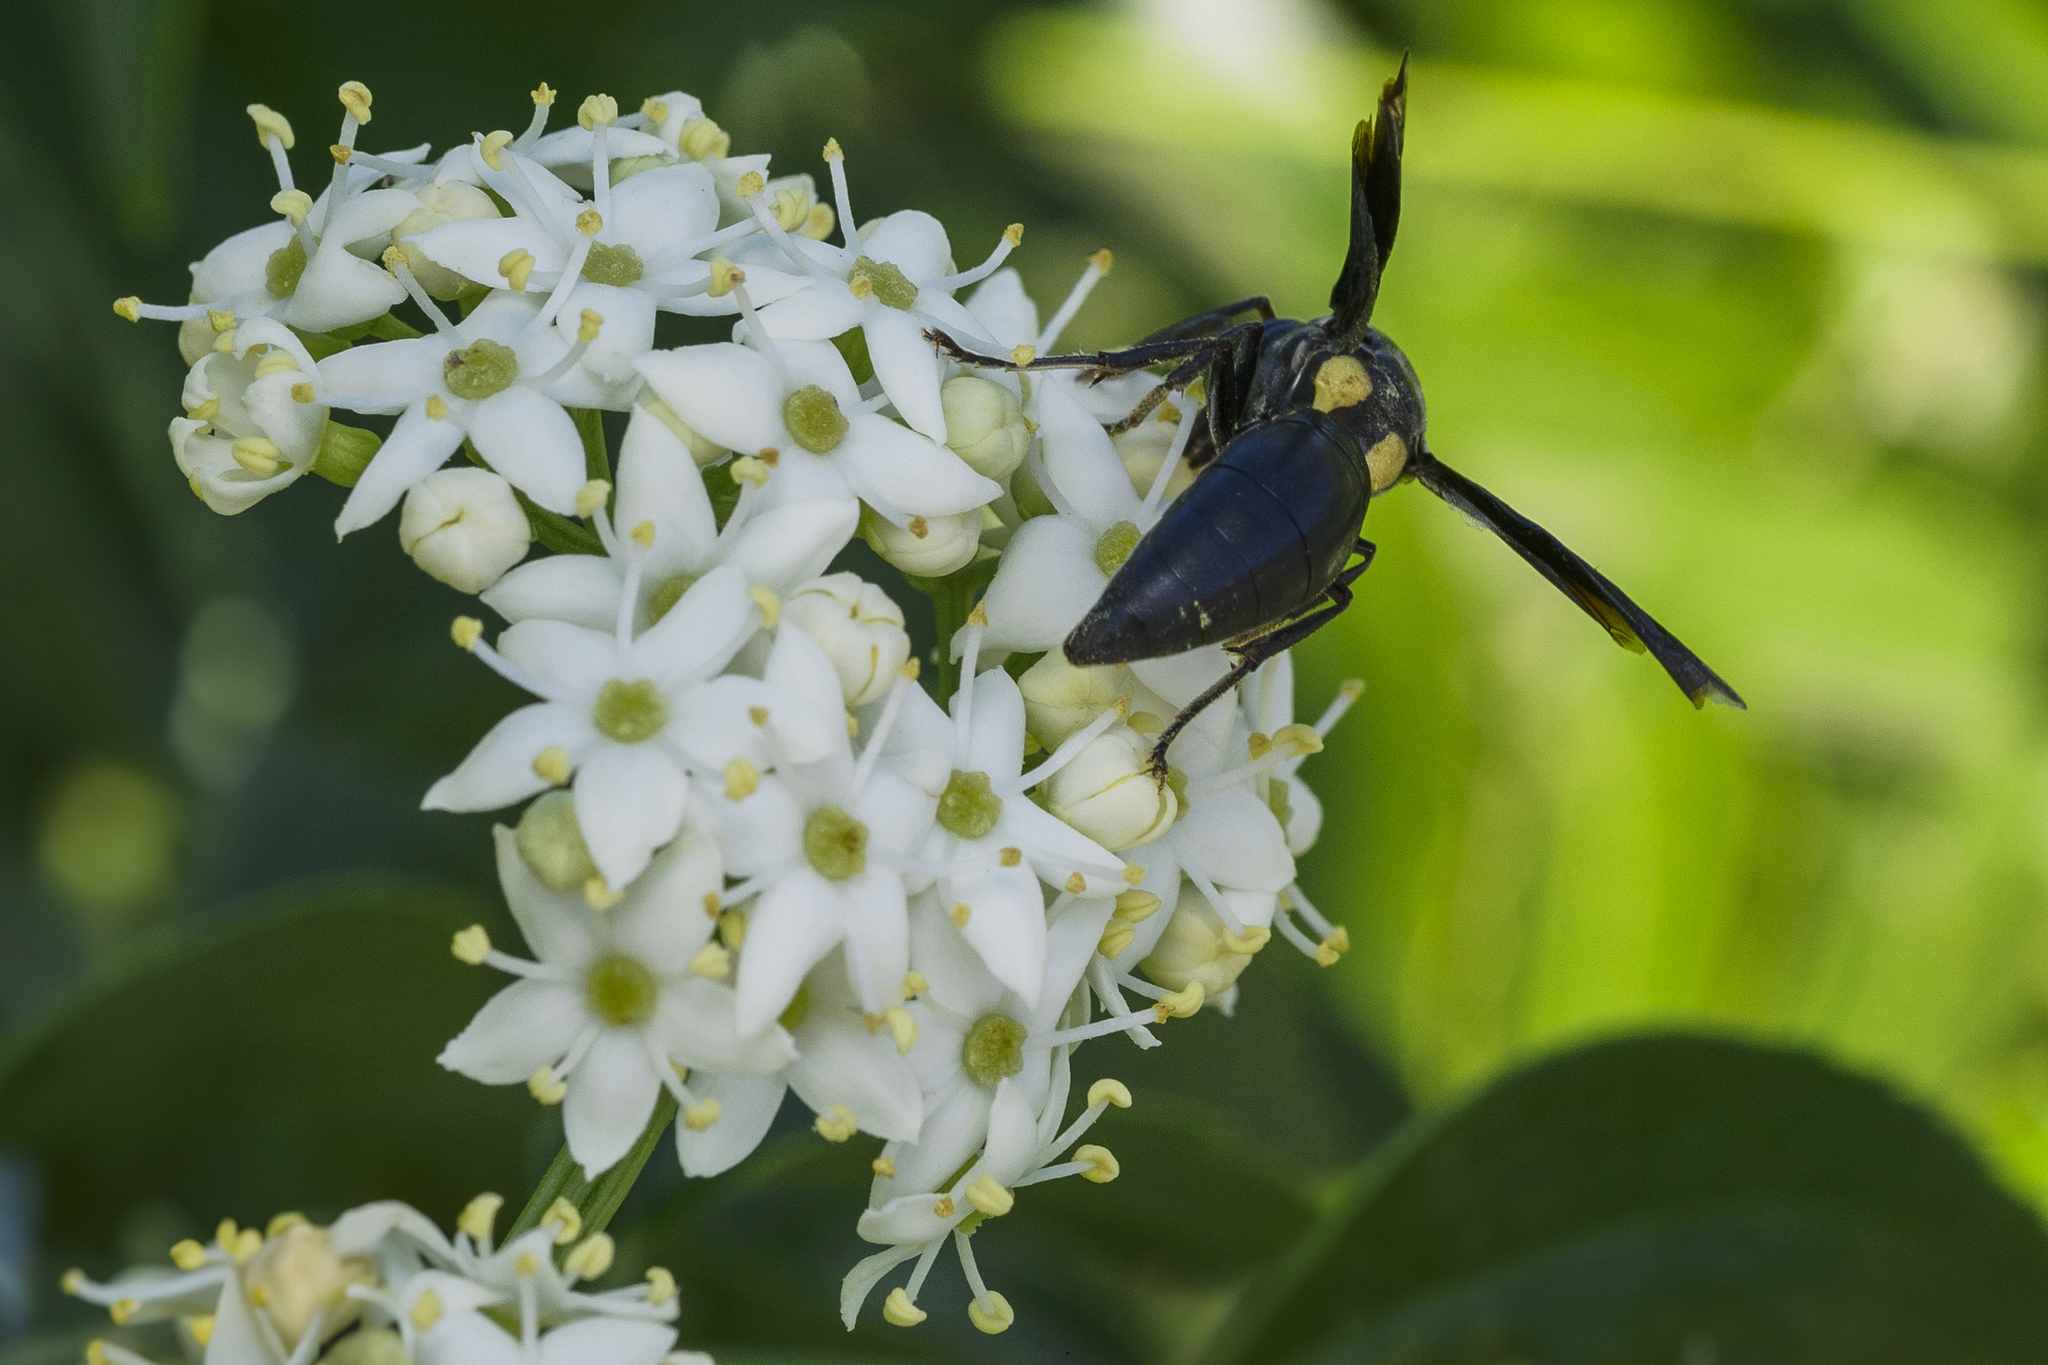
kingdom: Animalia
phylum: Arthropoda
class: Insecta
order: Hymenoptera
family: Eumenidae
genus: Monobia
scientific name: Monobia angulosa
